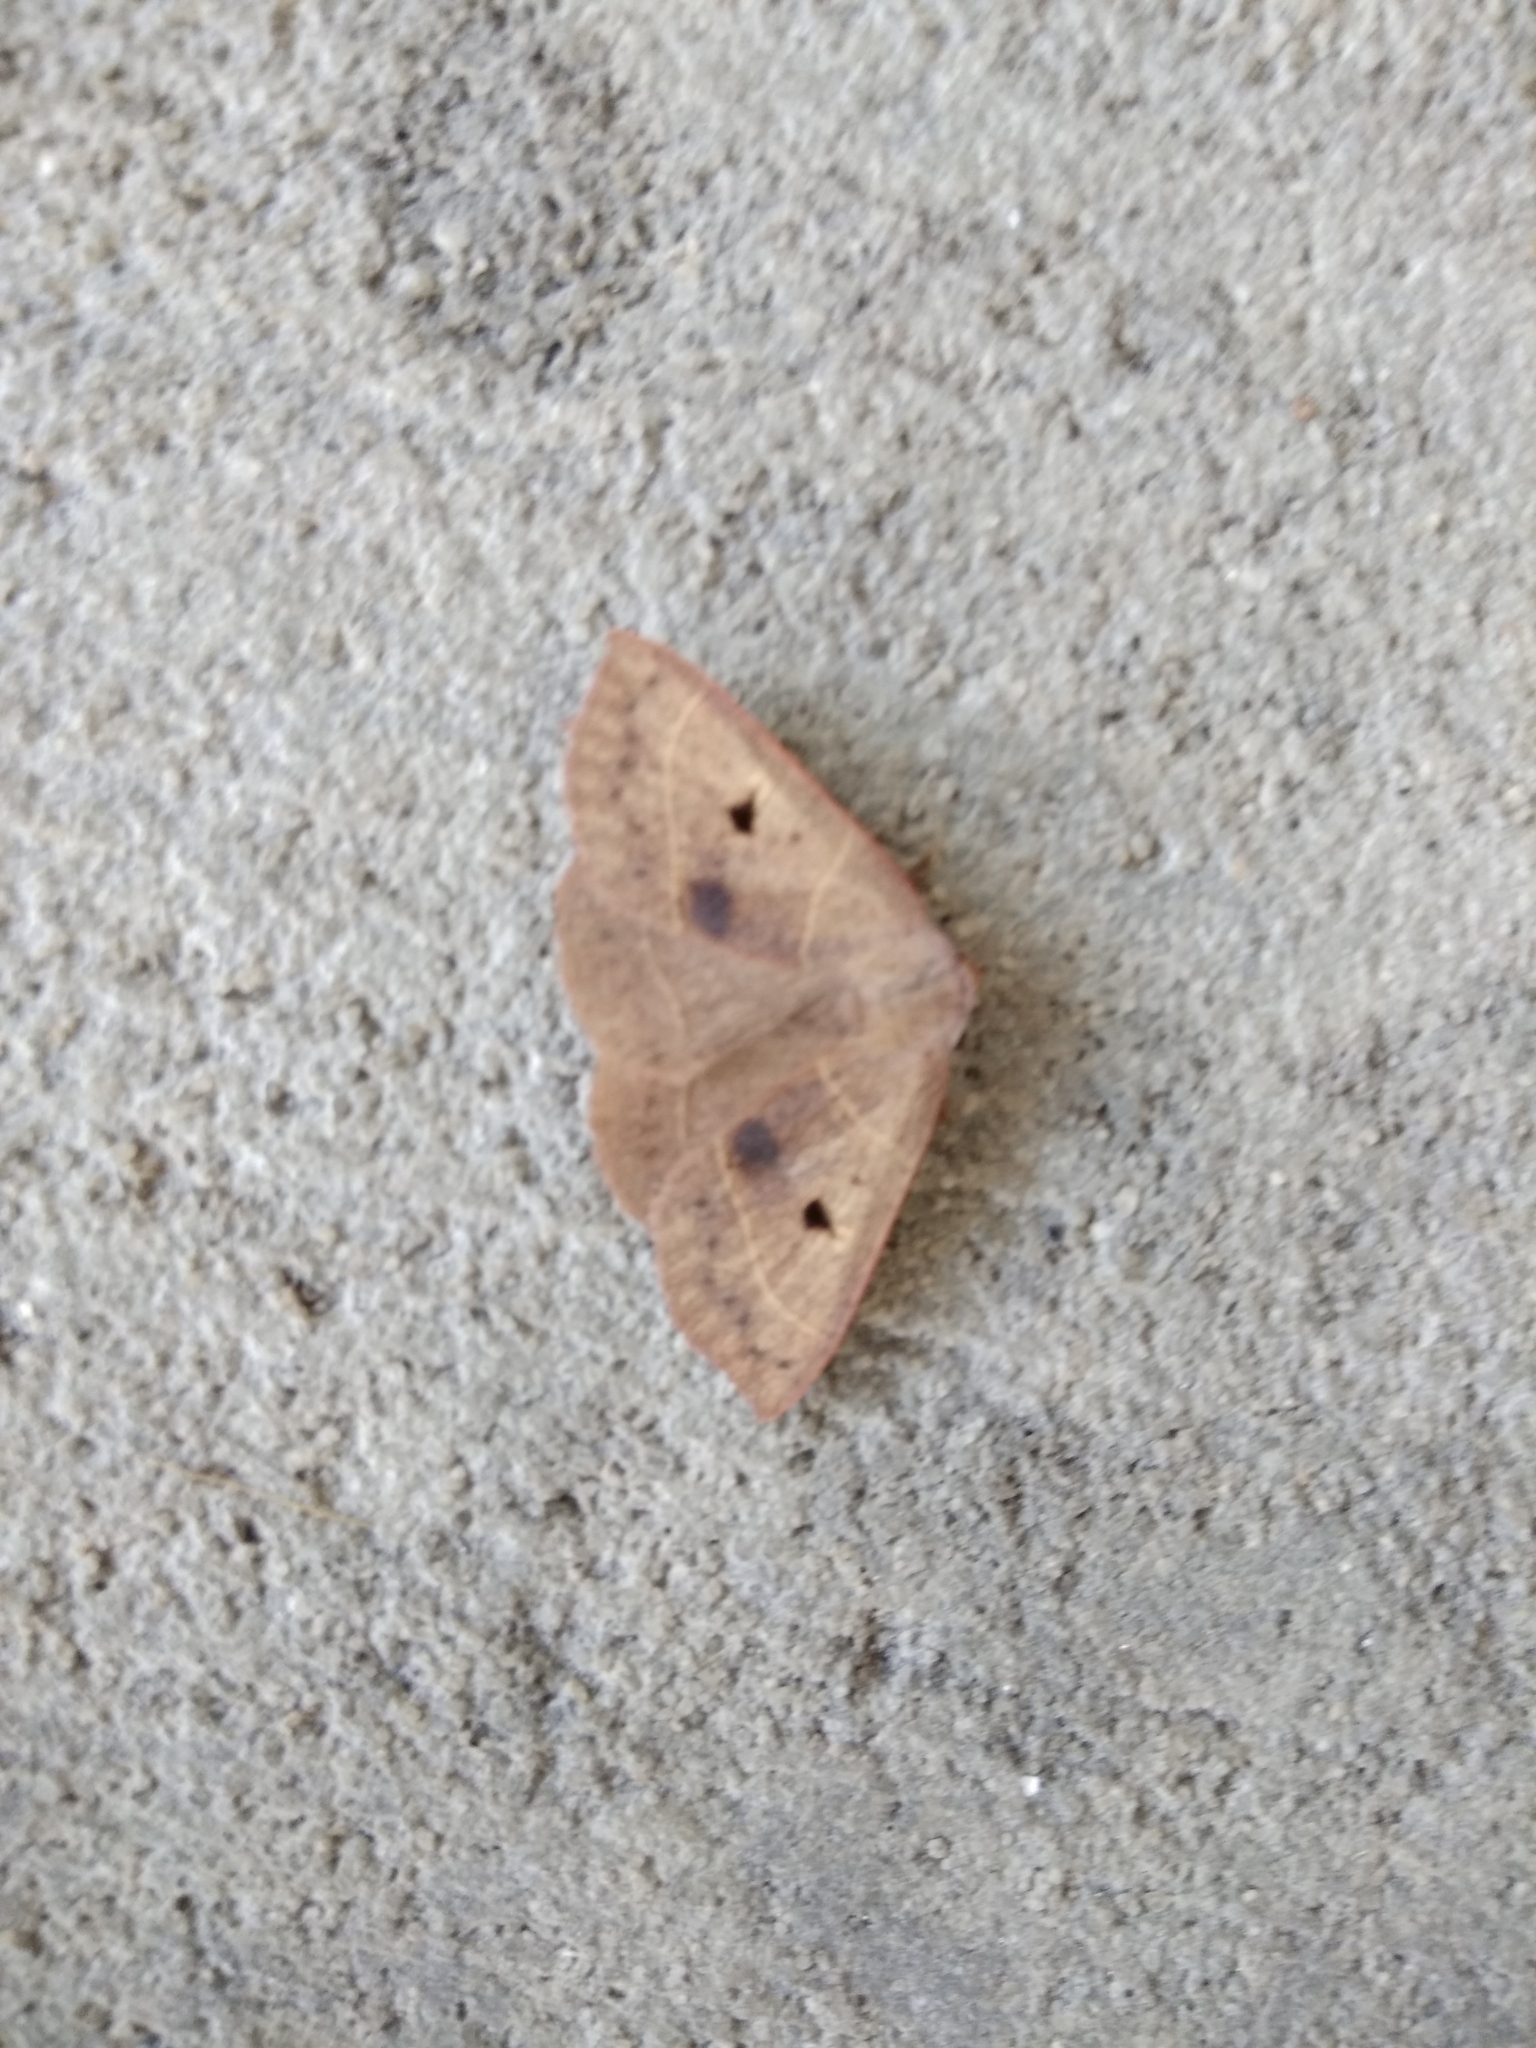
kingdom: Animalia
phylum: Arthropoda
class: Insecta
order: Lepidoptera
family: Erebidae
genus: Panopoda
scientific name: Panopoda rufimargo
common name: Red-lined panopoda moth
